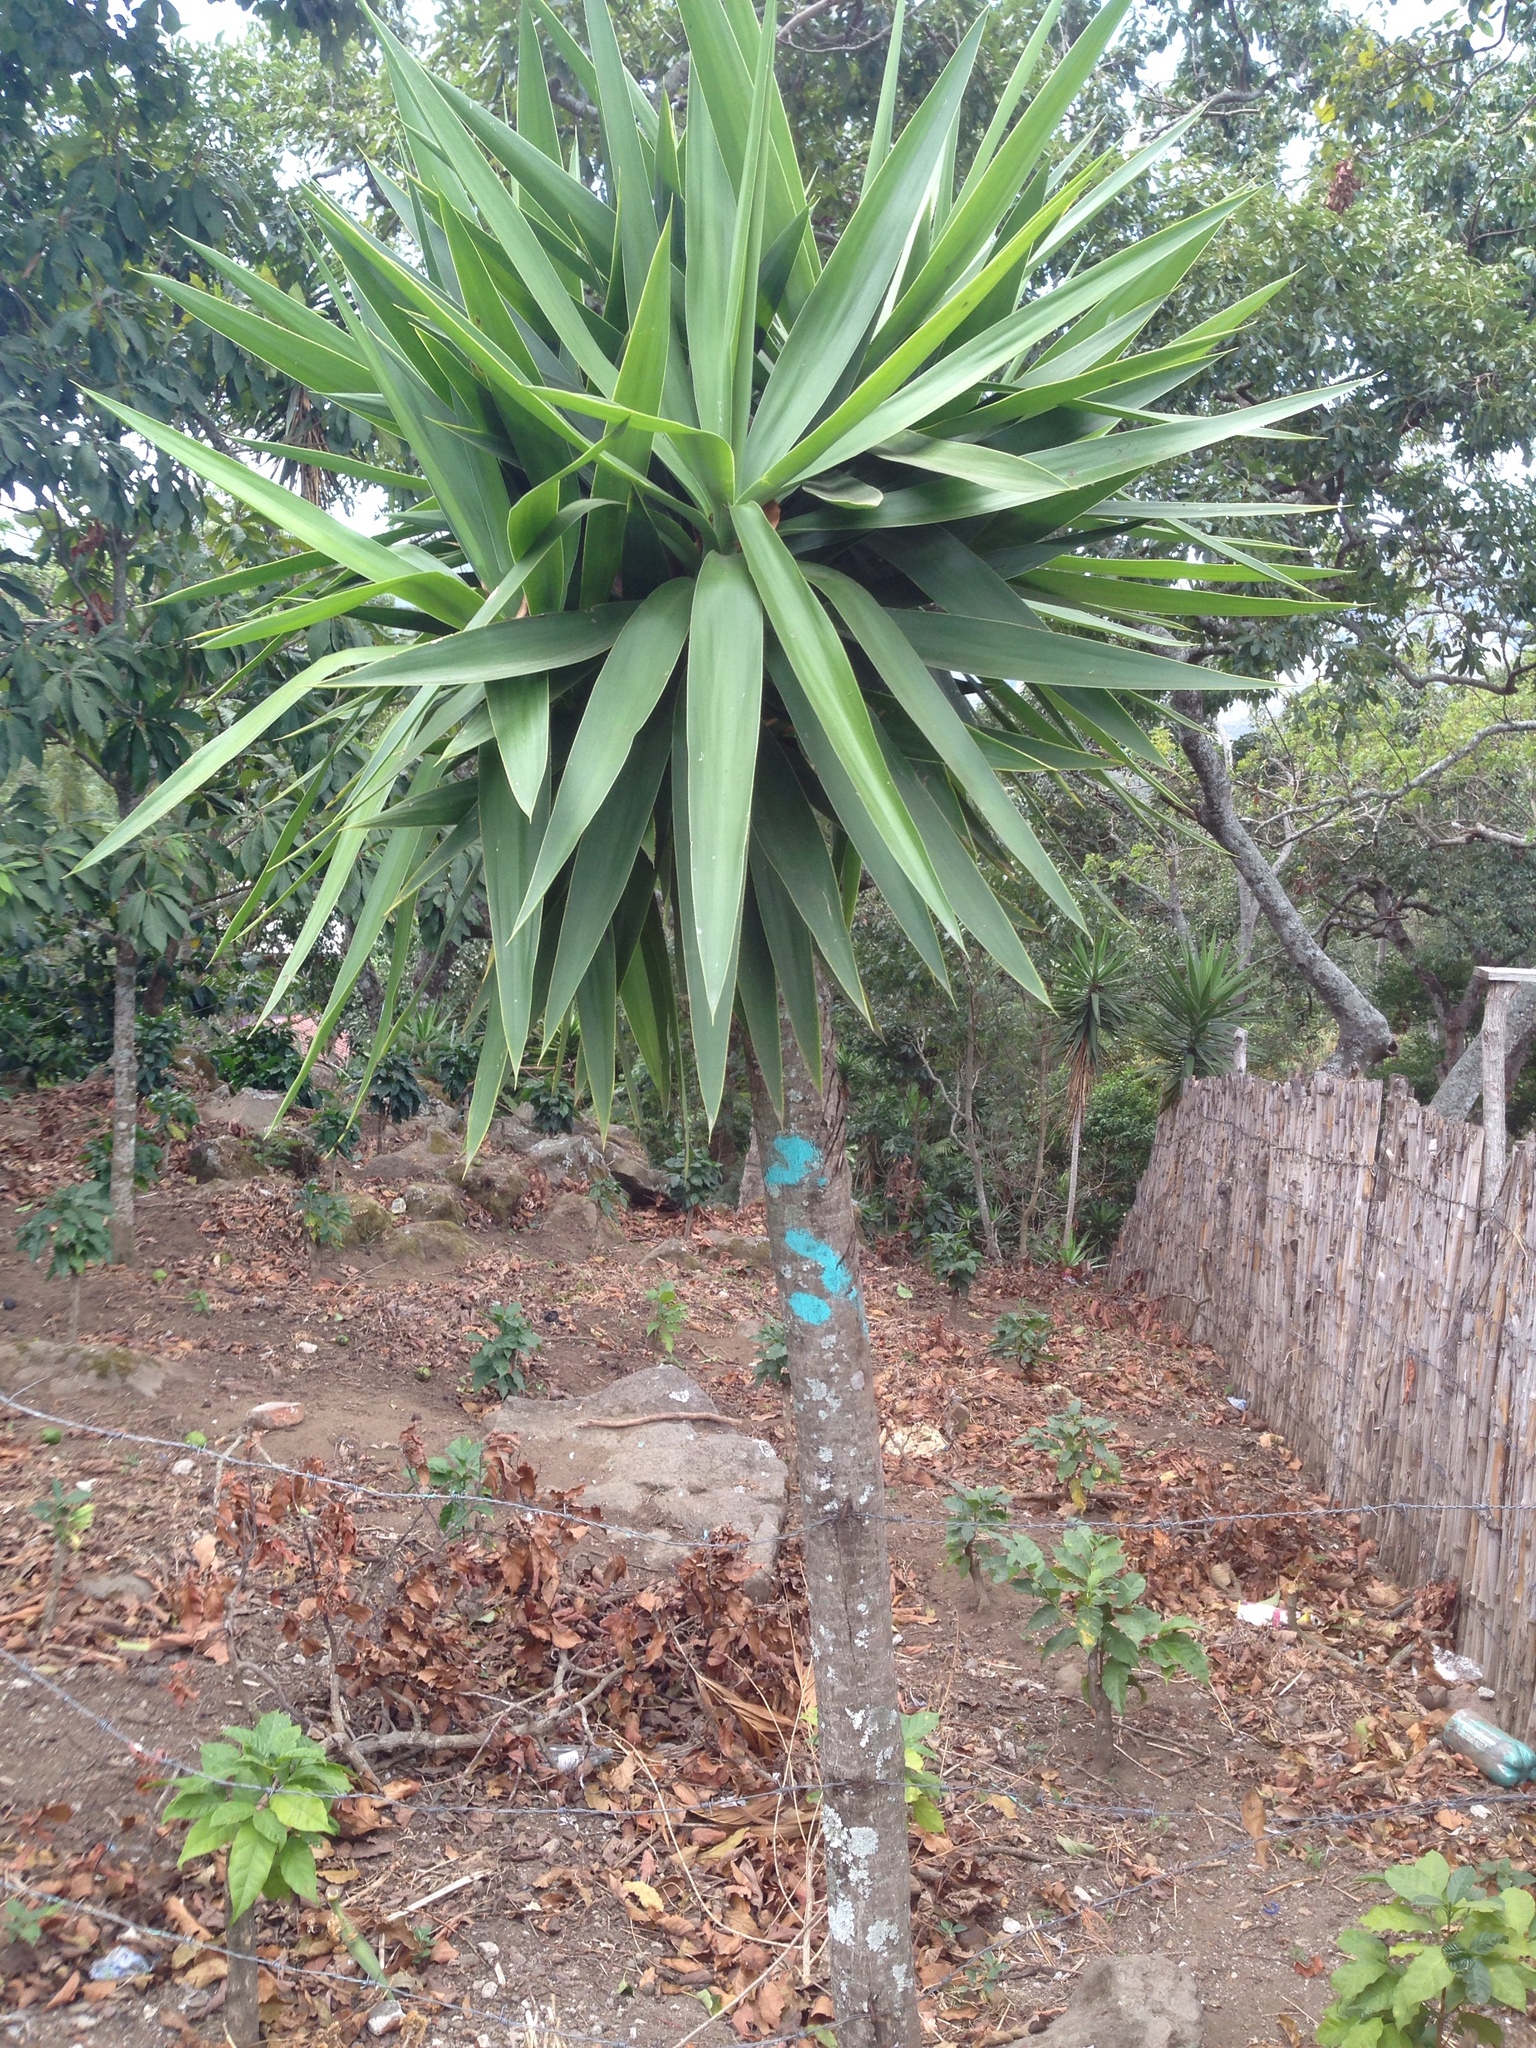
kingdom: Plantae
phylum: Tracheophyta
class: Liliopsida
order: Asparagales
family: Asparagaceae
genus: Yucca
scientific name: Yucca gigantea
